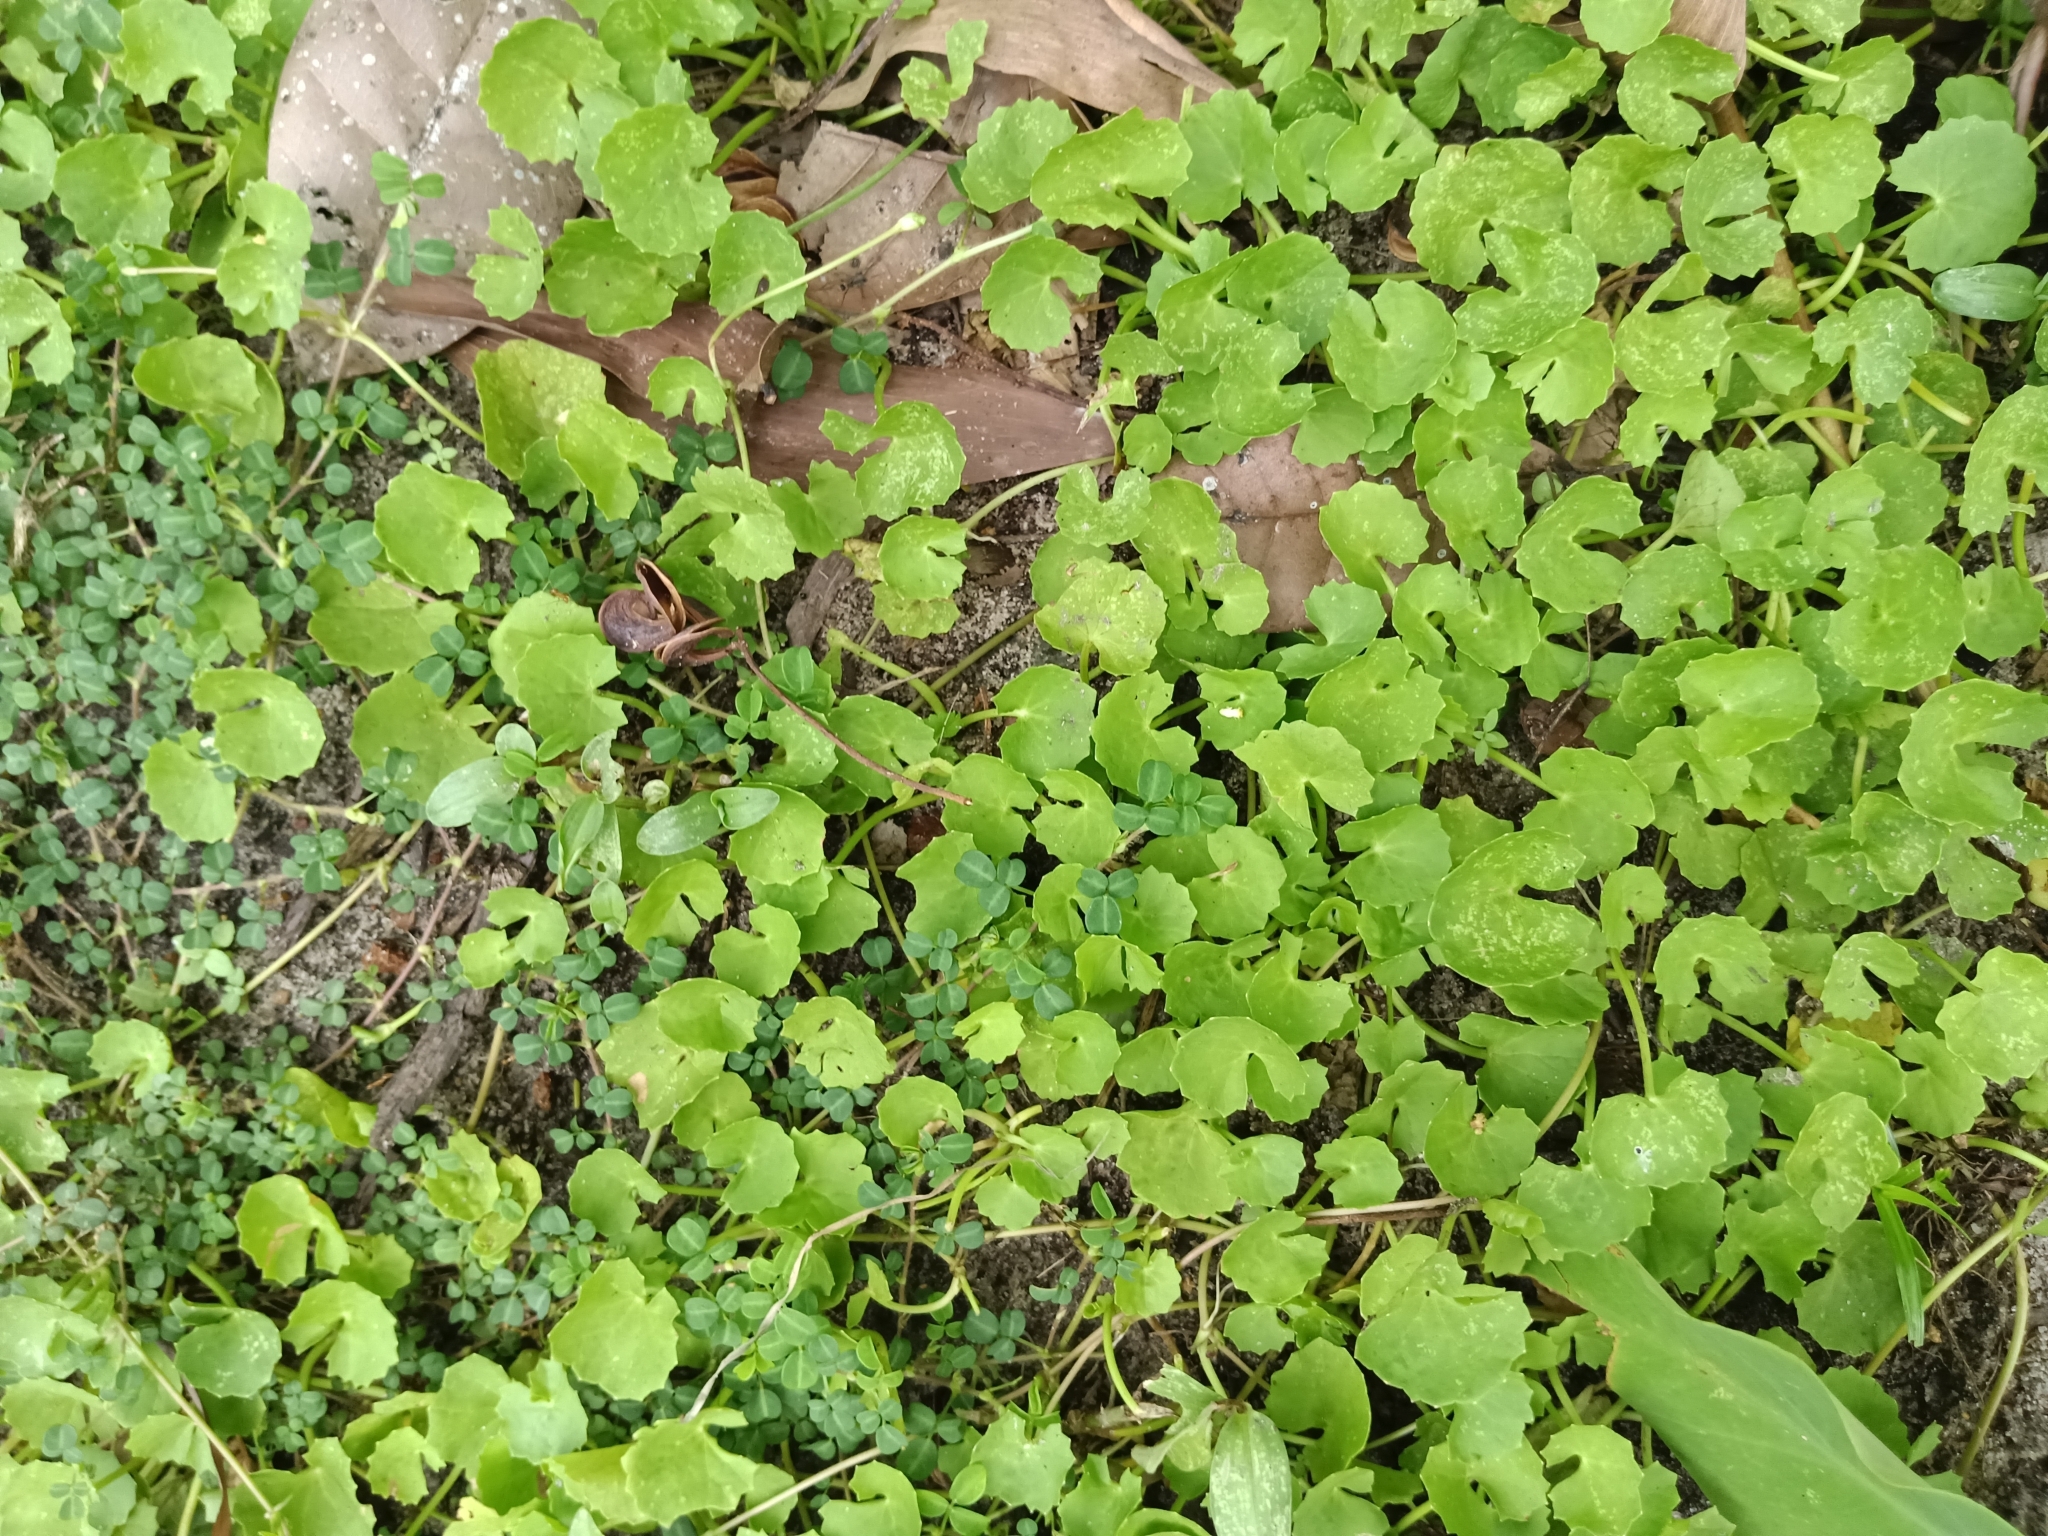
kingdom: Plantae
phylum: Tracheophyta
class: Magnoliopsida
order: Apiales
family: Apiaceae
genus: Centella
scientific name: Centella asiatica
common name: Spadeleaf
